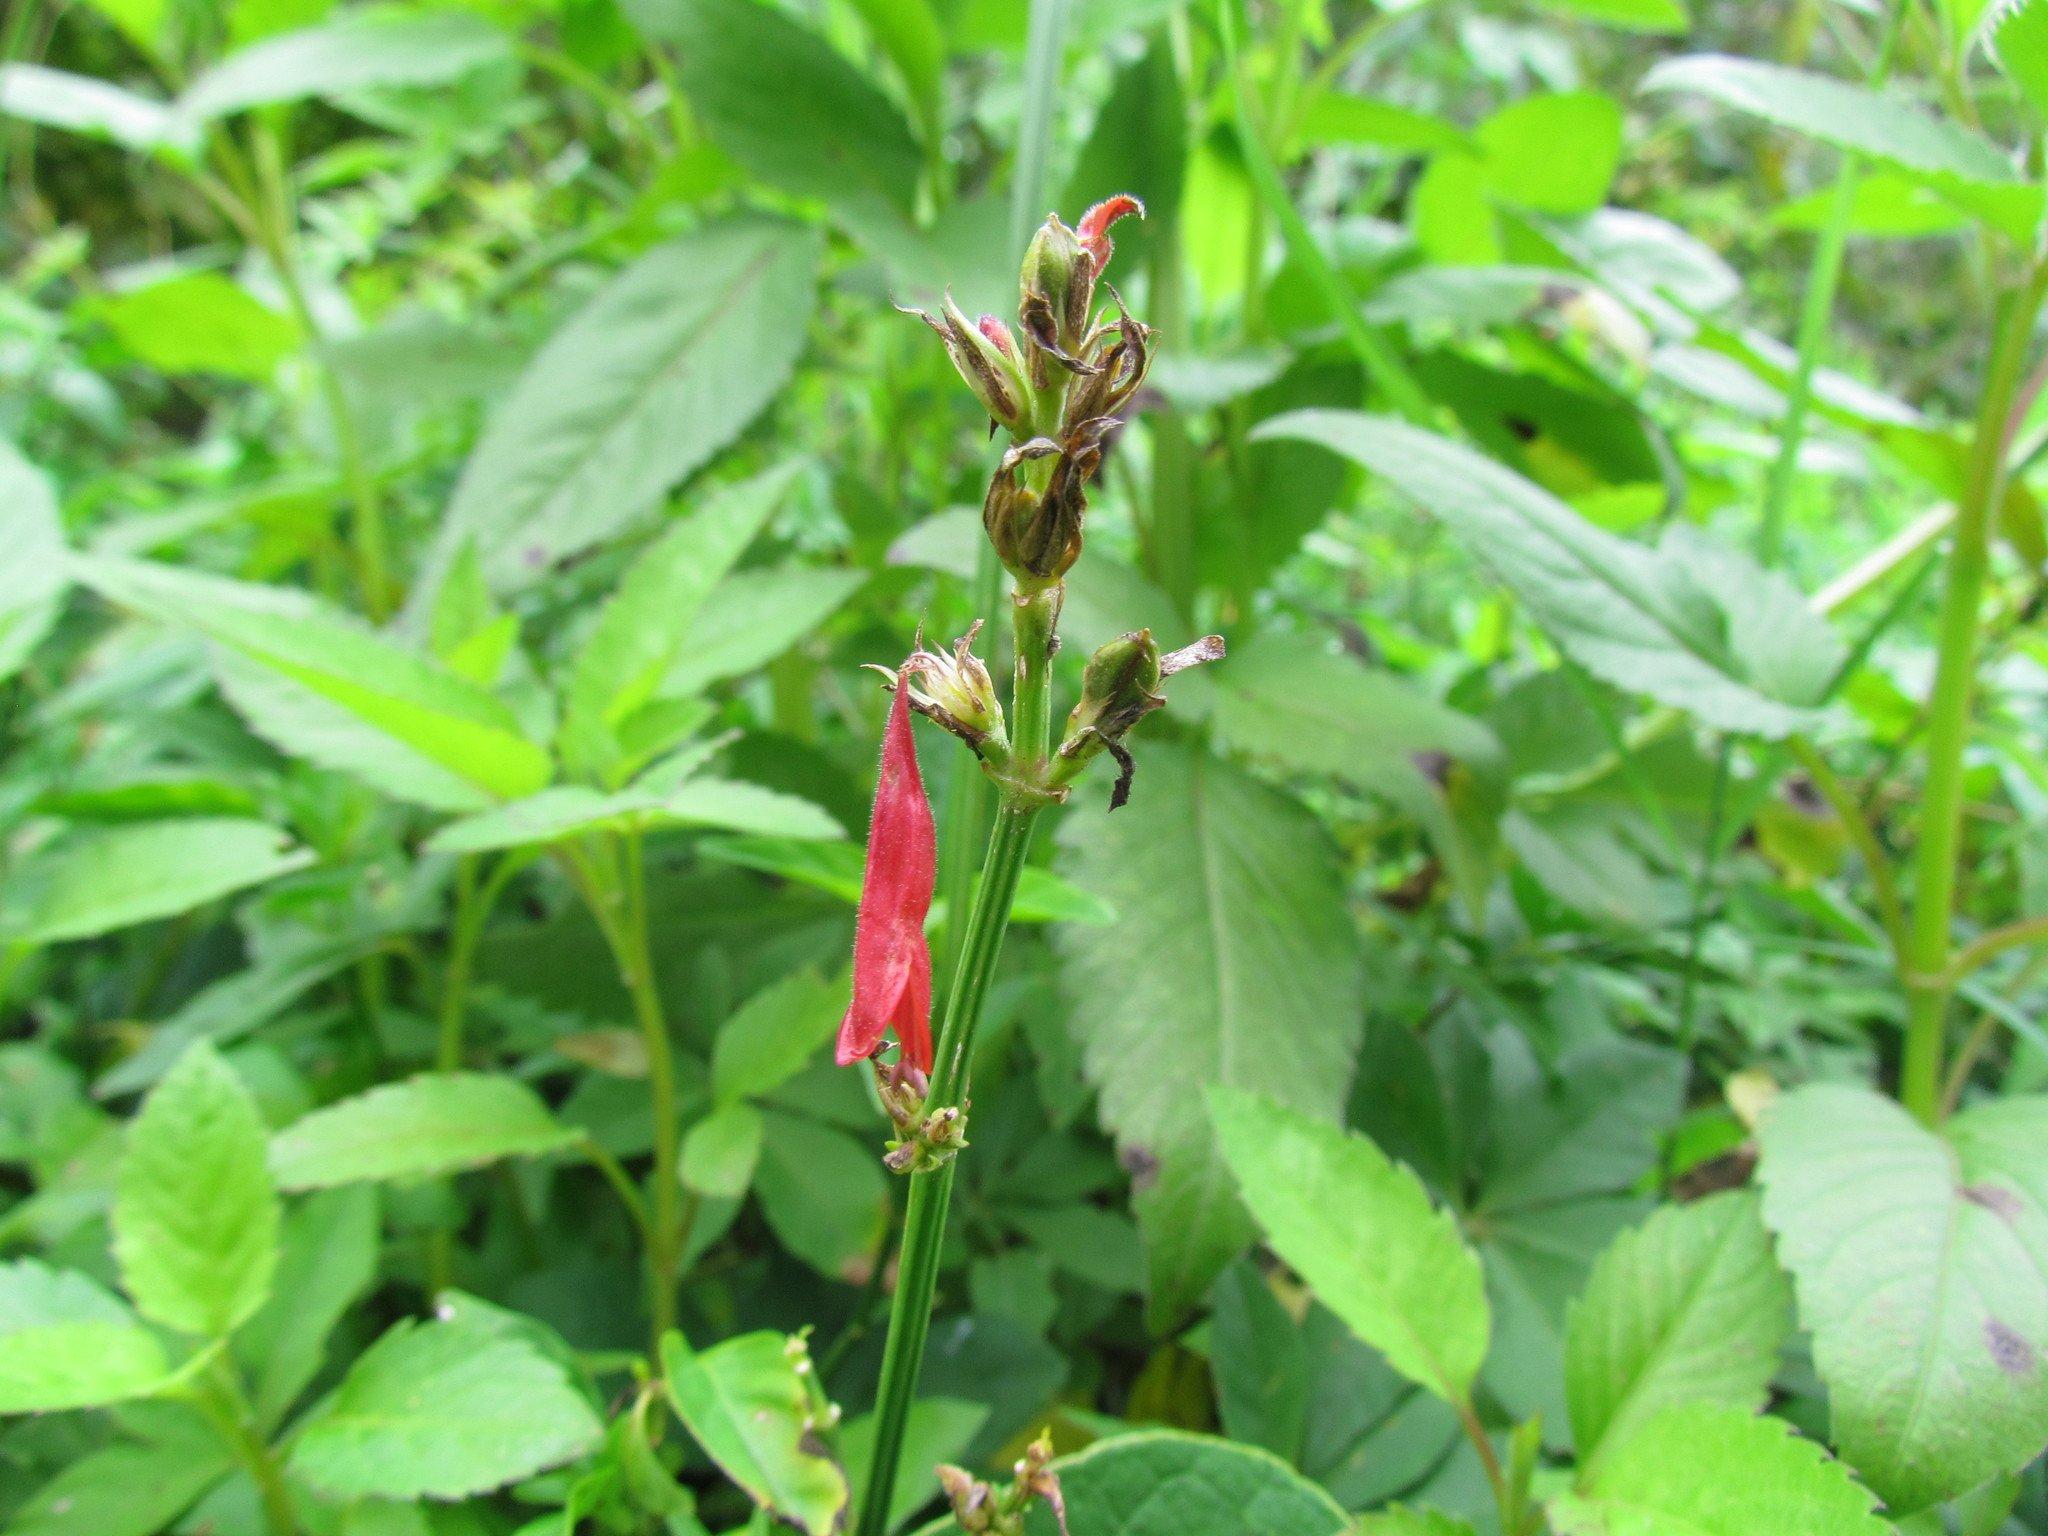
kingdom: Plantae
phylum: Tracheophyta
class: Magnoliopsida
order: Lamiales
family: Acanthaceae
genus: Dicliptera
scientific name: Dicliptera squarrosa
